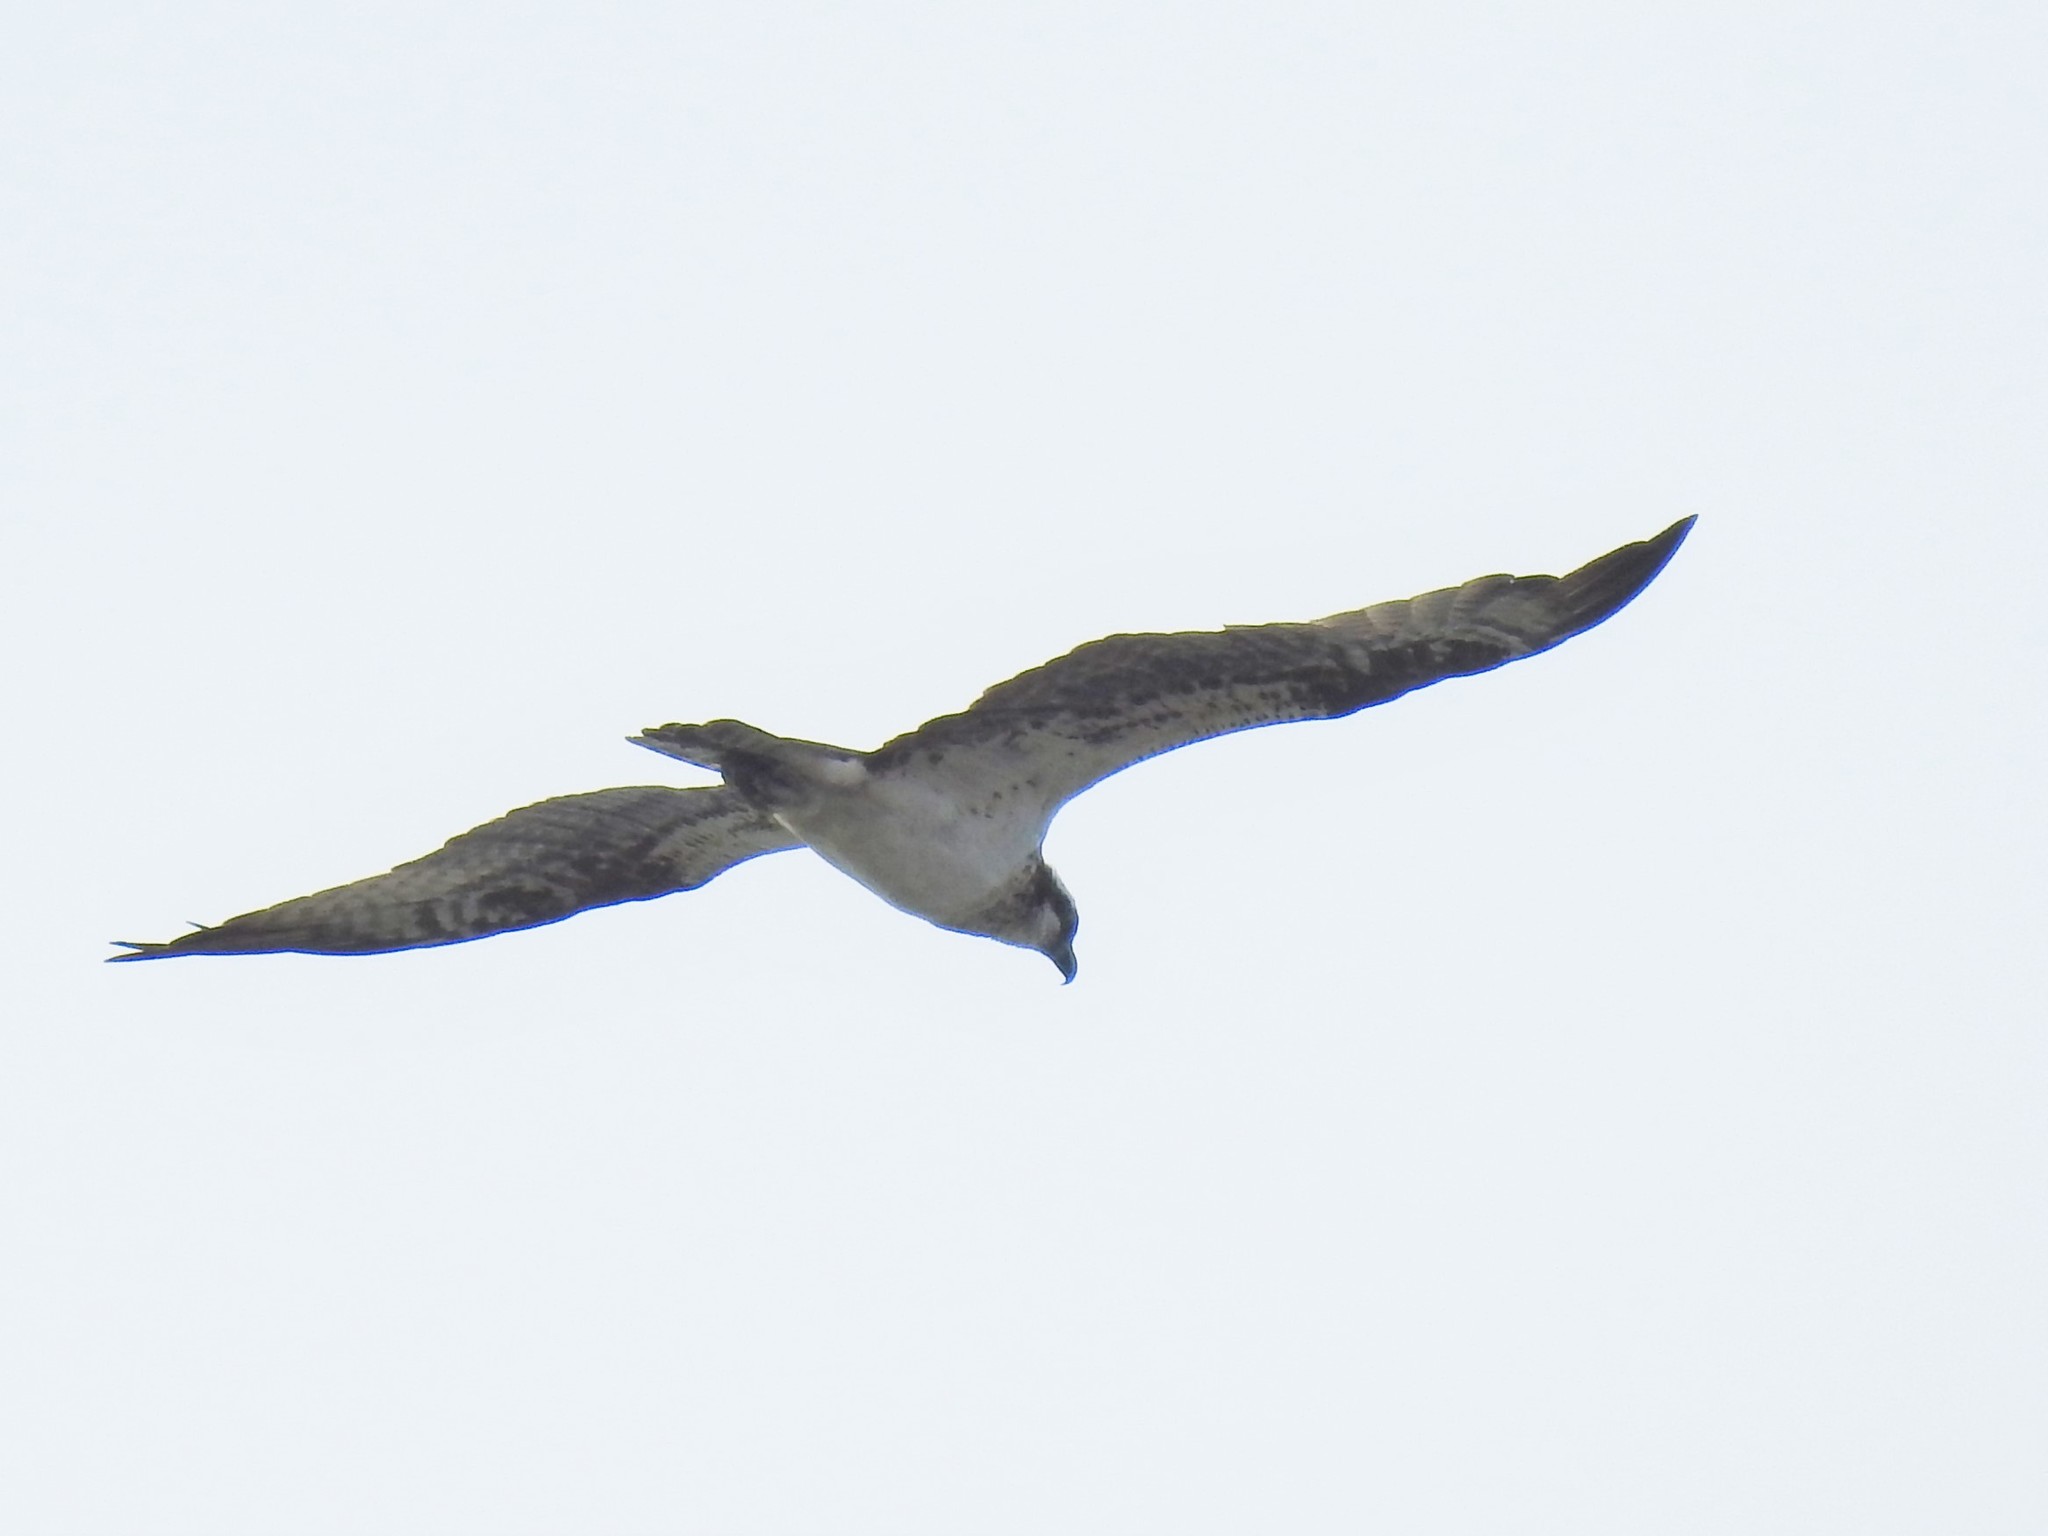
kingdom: Animalia
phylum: Chordata
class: Aves
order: Accipitriformes
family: Pandionidae
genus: Pandion
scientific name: Pandion haliaetus
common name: Osprey
